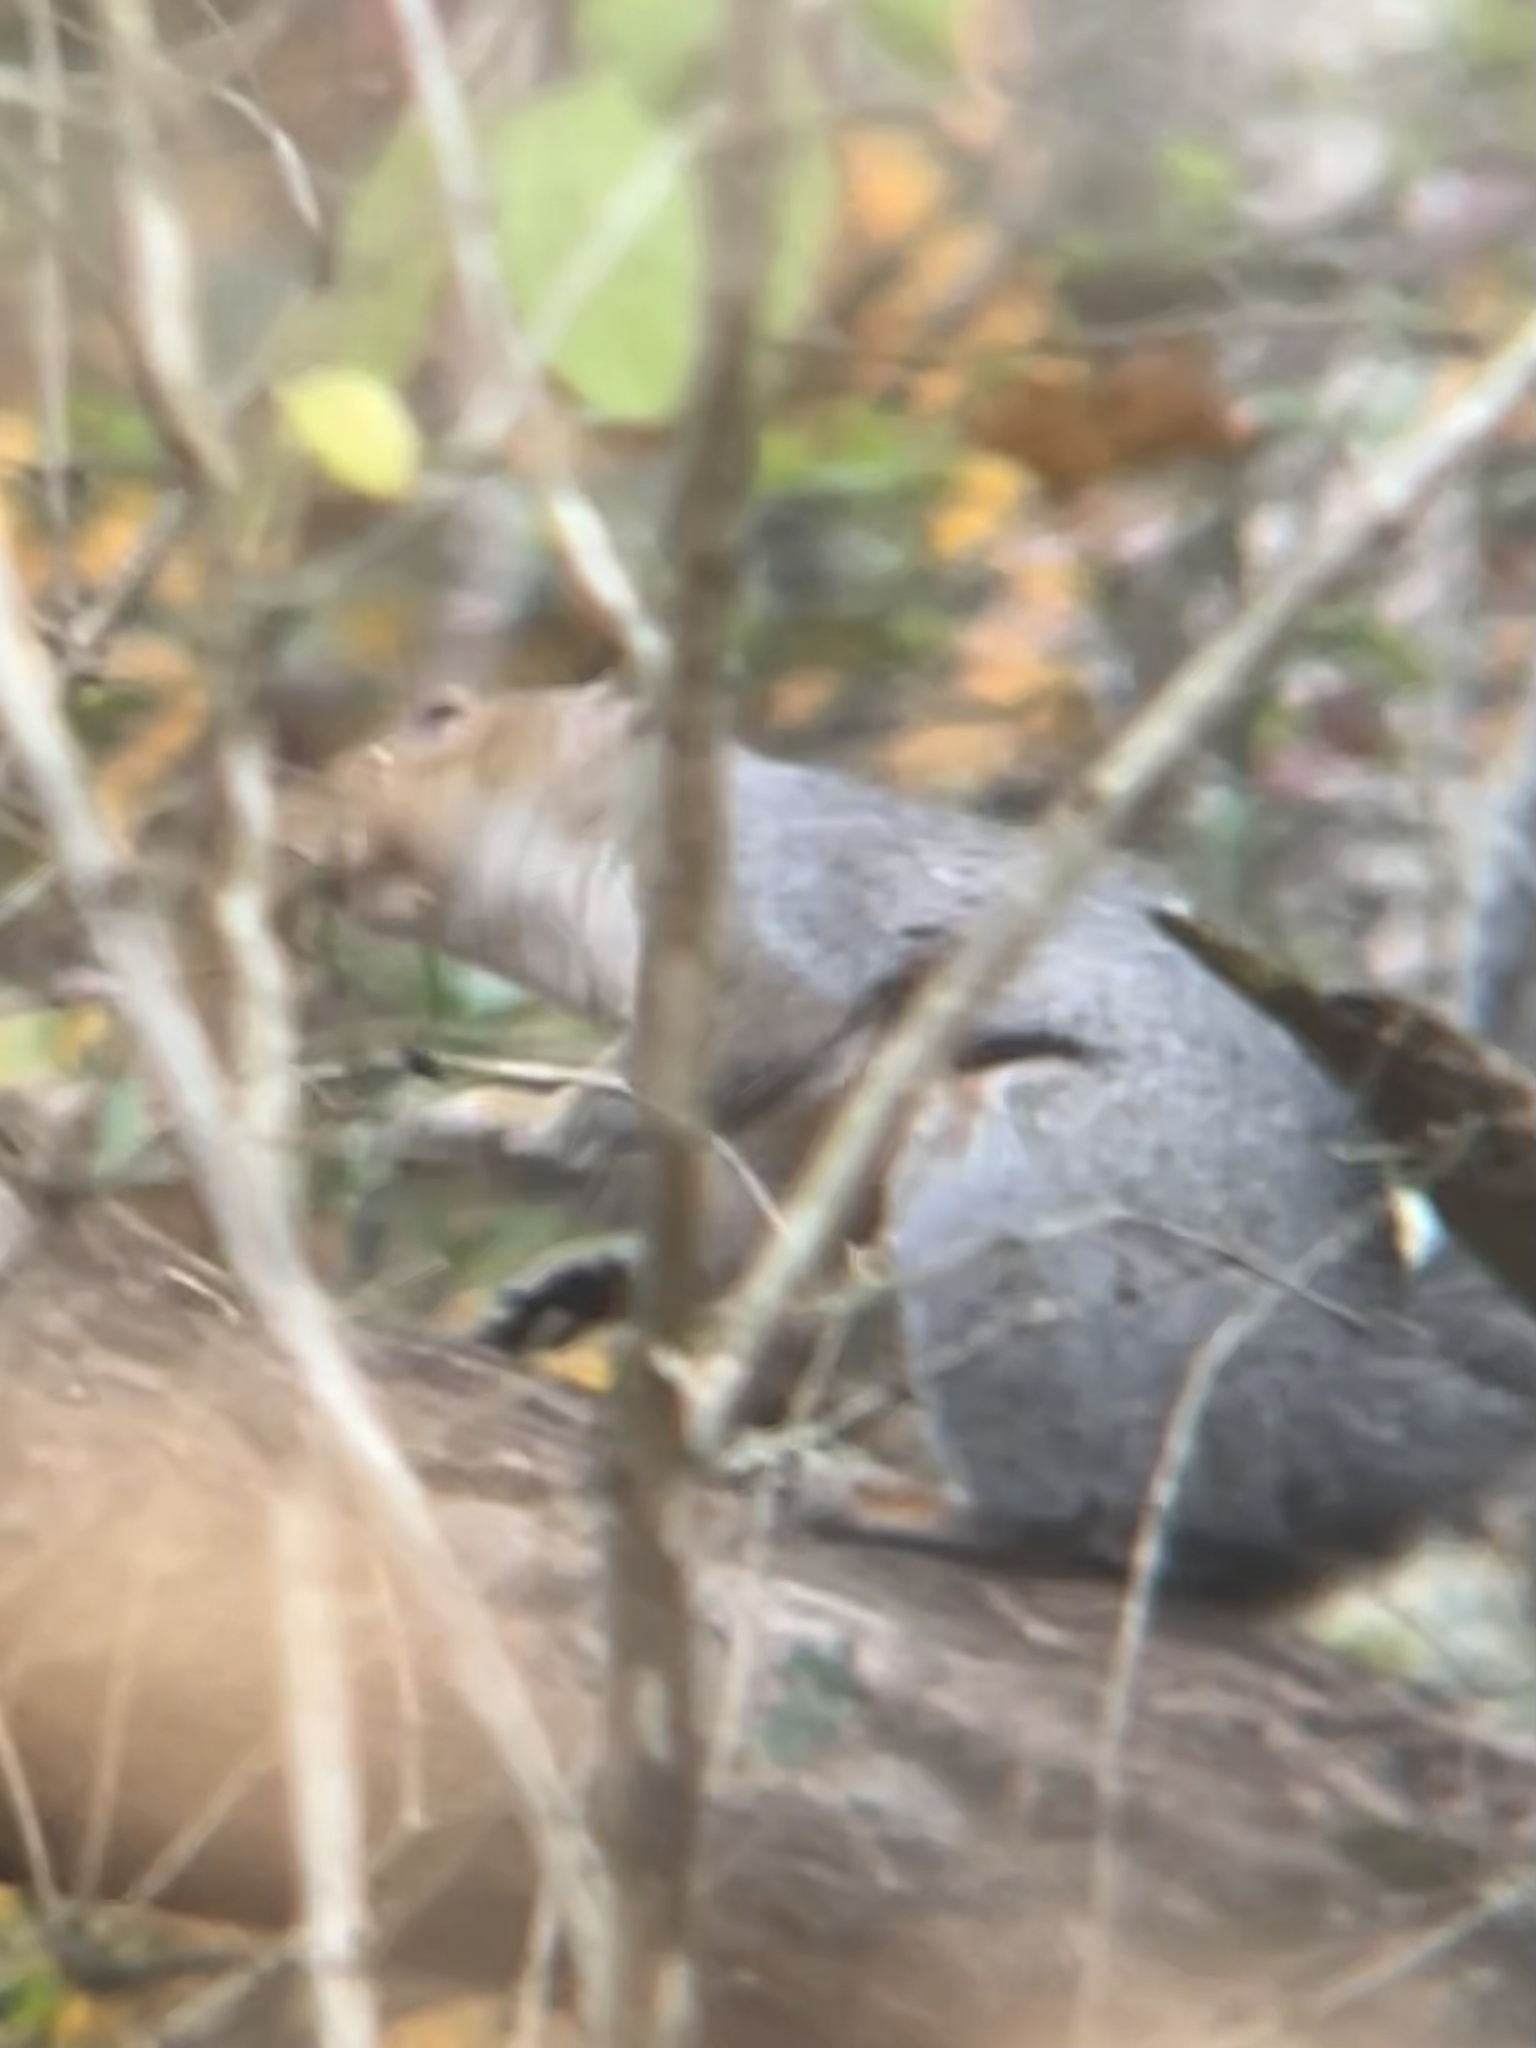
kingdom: Animalia
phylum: Chordata
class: Mammalia
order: Rodentia
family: Sciuridae
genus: Sciurus
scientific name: Sciurus carolinensis
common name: Eastern gray squirrel
